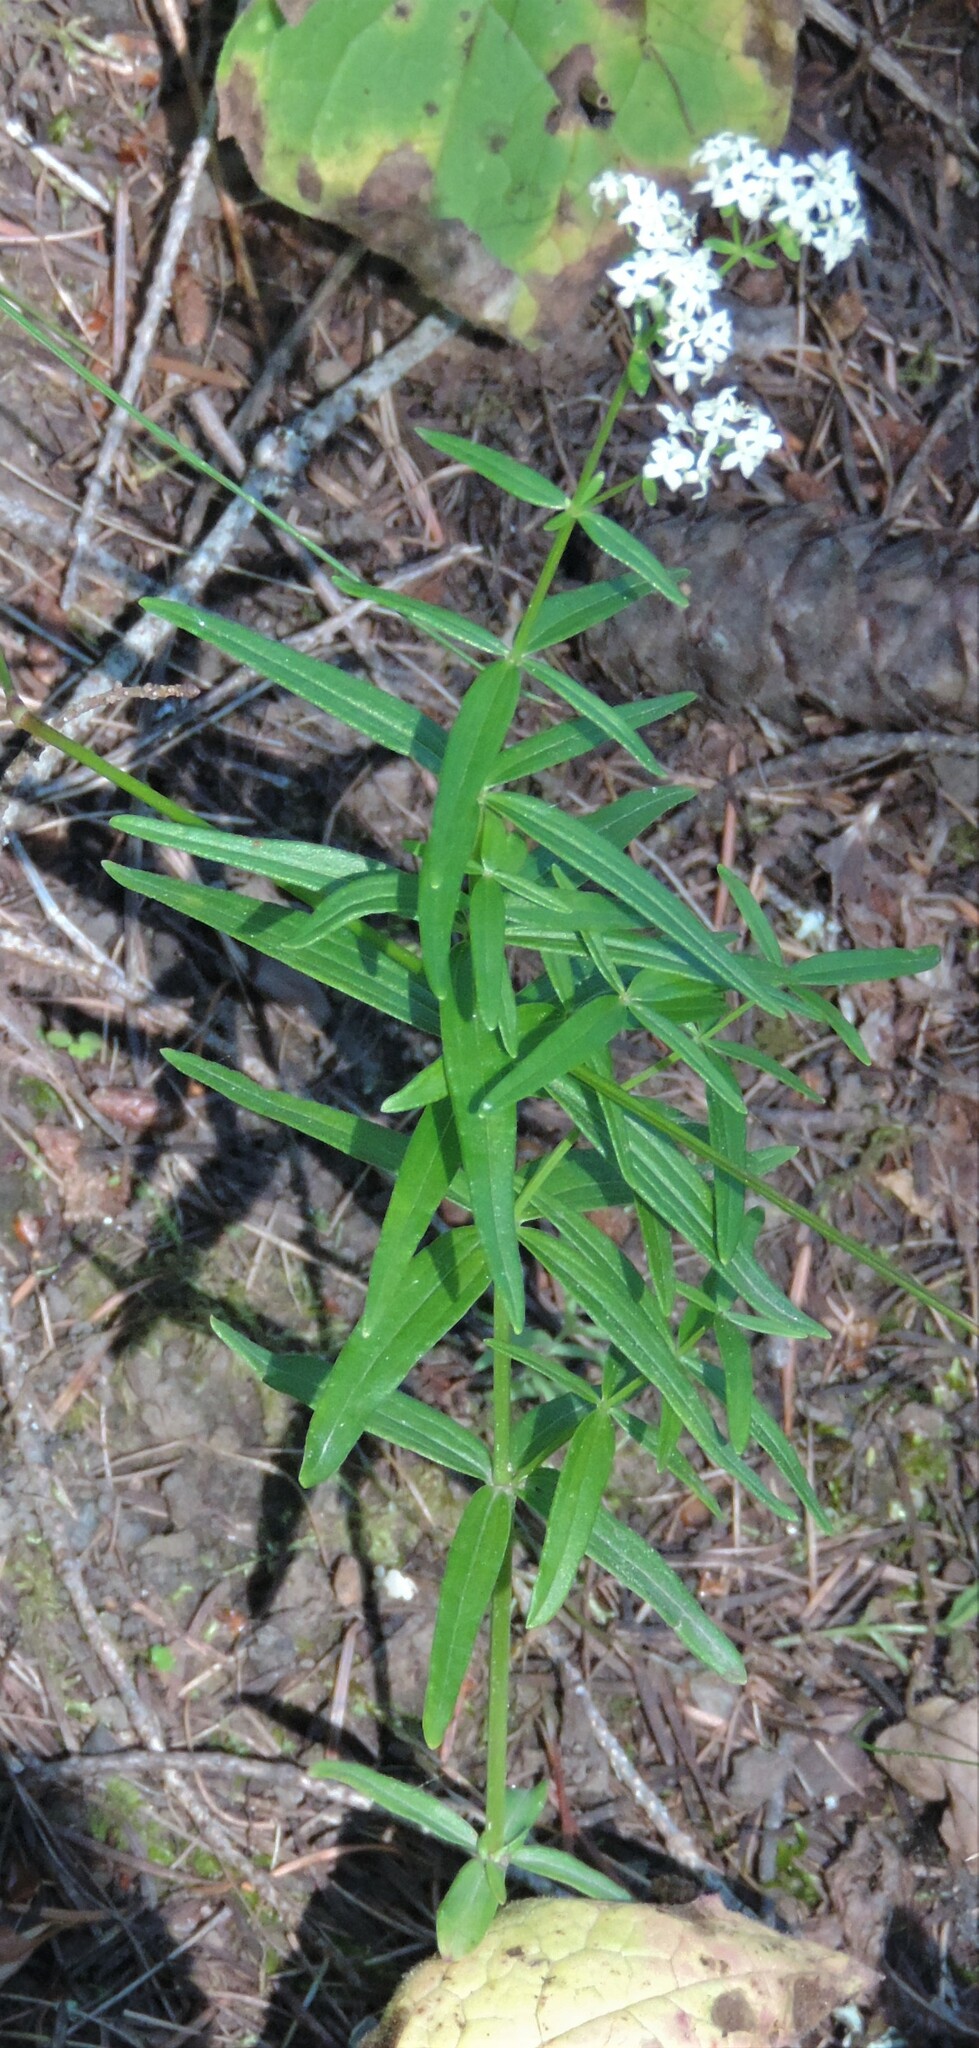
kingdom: Plantae
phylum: Tracheophyta
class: Magnoliopsida
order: Gentianales
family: Rubiaceae
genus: Galium
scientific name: Galium boreale
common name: Northern bedstraw
